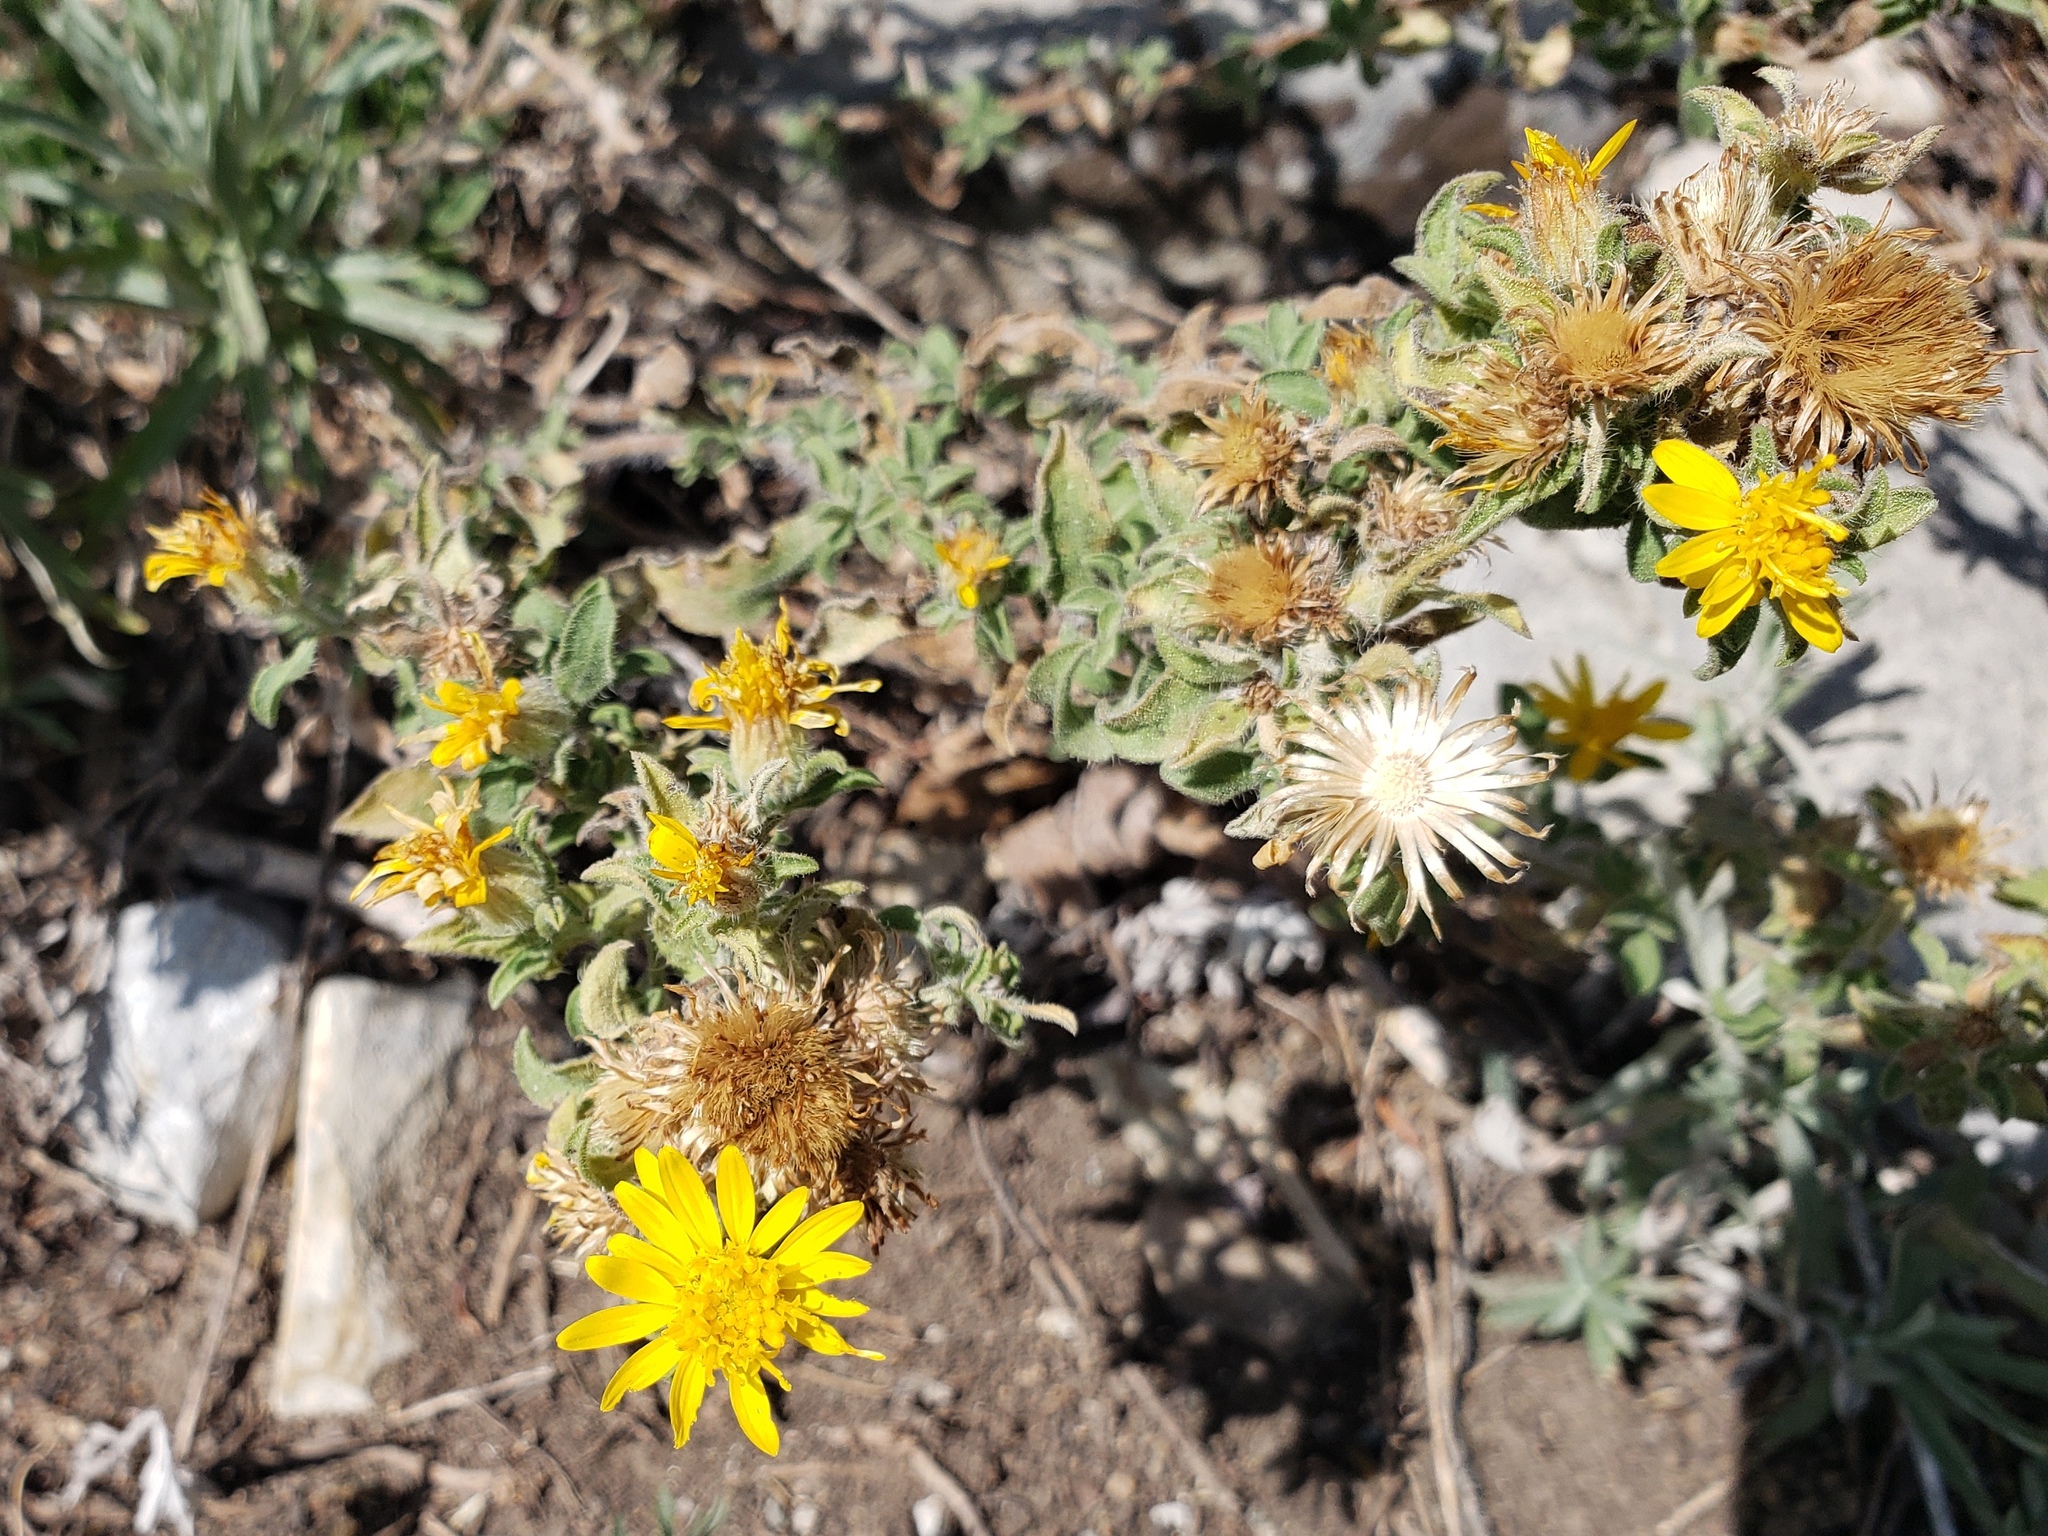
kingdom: Plantae
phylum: Tracheophyta
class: Magnoliopsida
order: Asterales
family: Asteraceae
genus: Heterotheca
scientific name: Heterotheca paniculata
